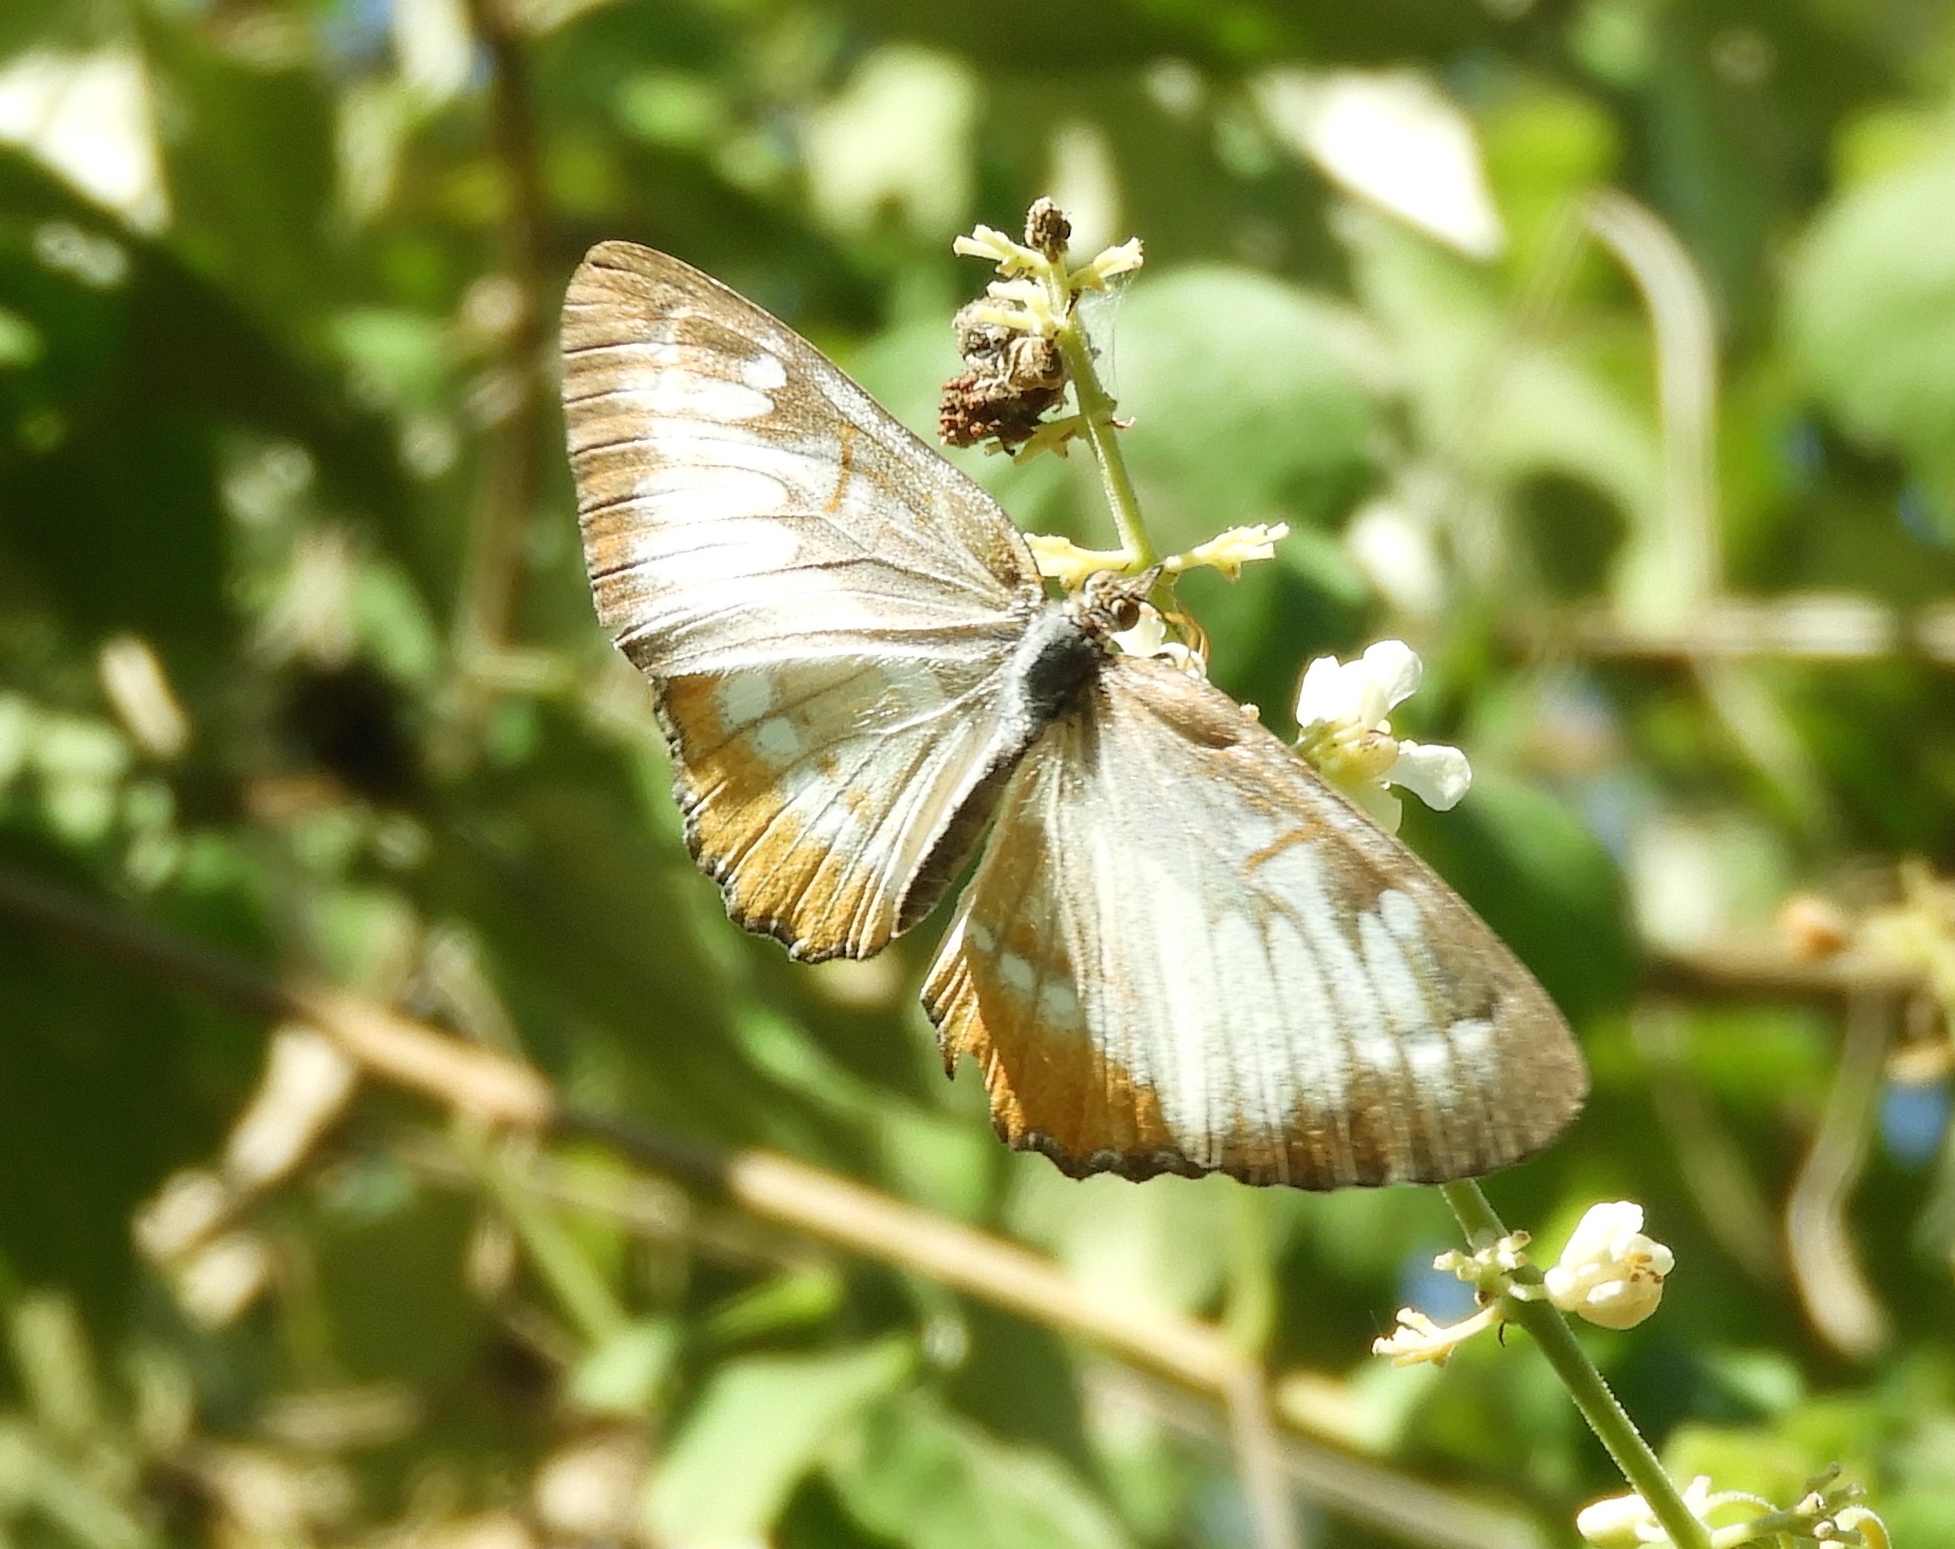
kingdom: Animalia
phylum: Arthropoda
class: Insecta
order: Lepidoptera
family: Nymphalidae
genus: Mestra
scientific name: Mestra amymone
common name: Common mestra
